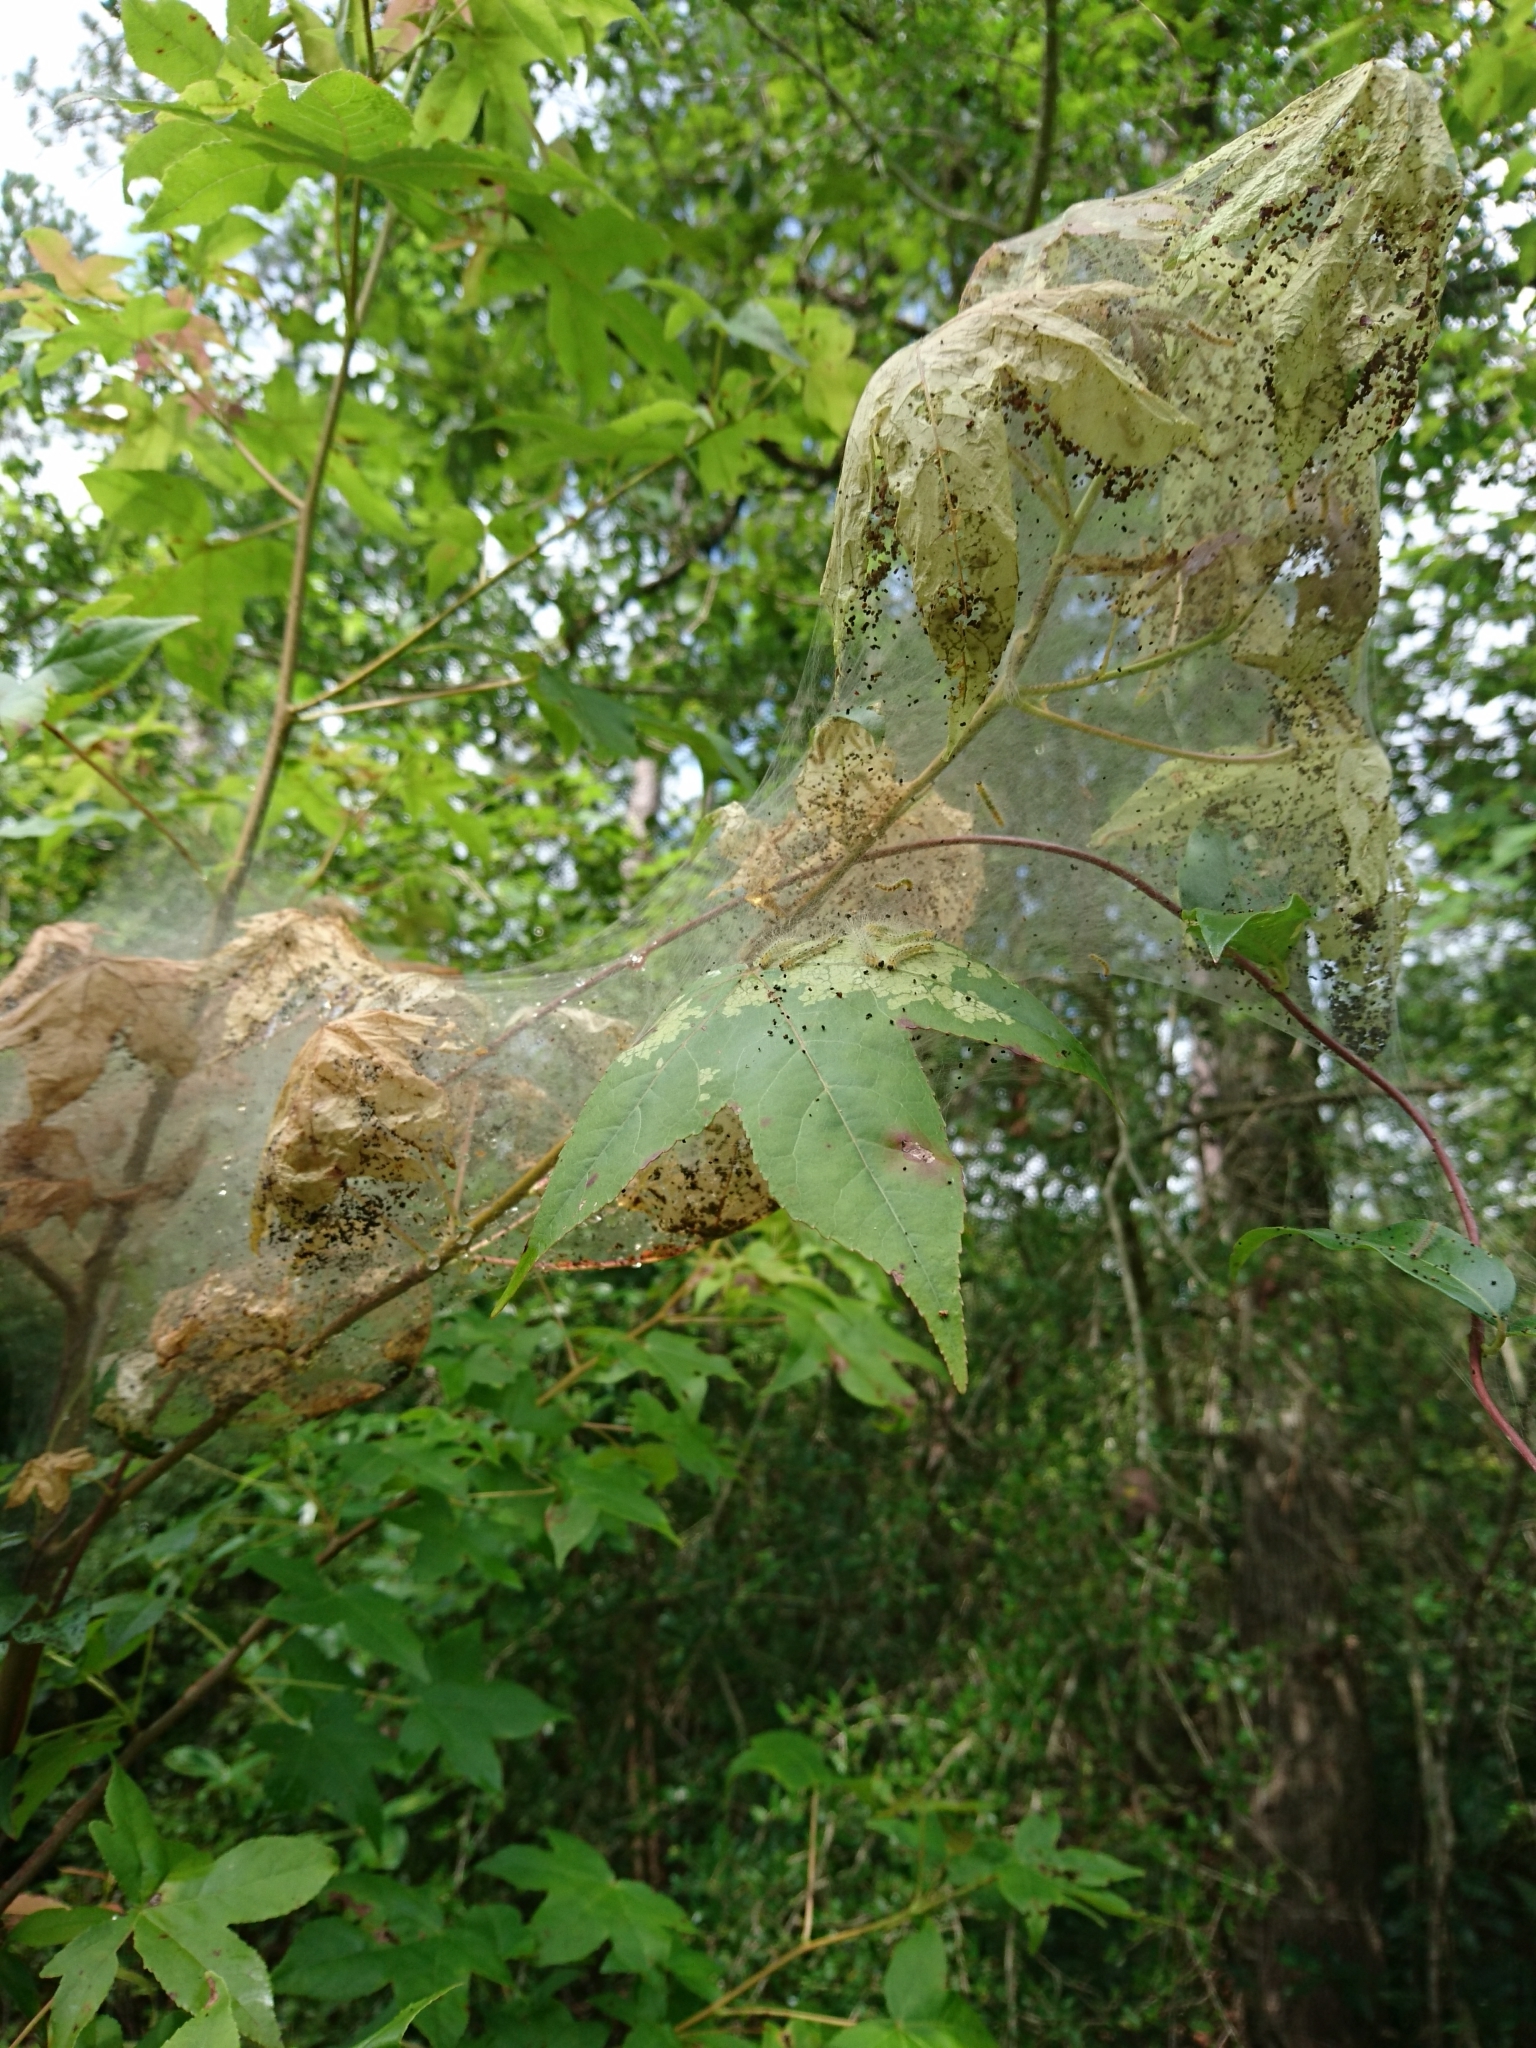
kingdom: Animalia
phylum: Arthropoda
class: Insecta
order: Lepidoptera
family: Erebidae
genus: Hyphantria
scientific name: Hyphantria cunea
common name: American white moth
